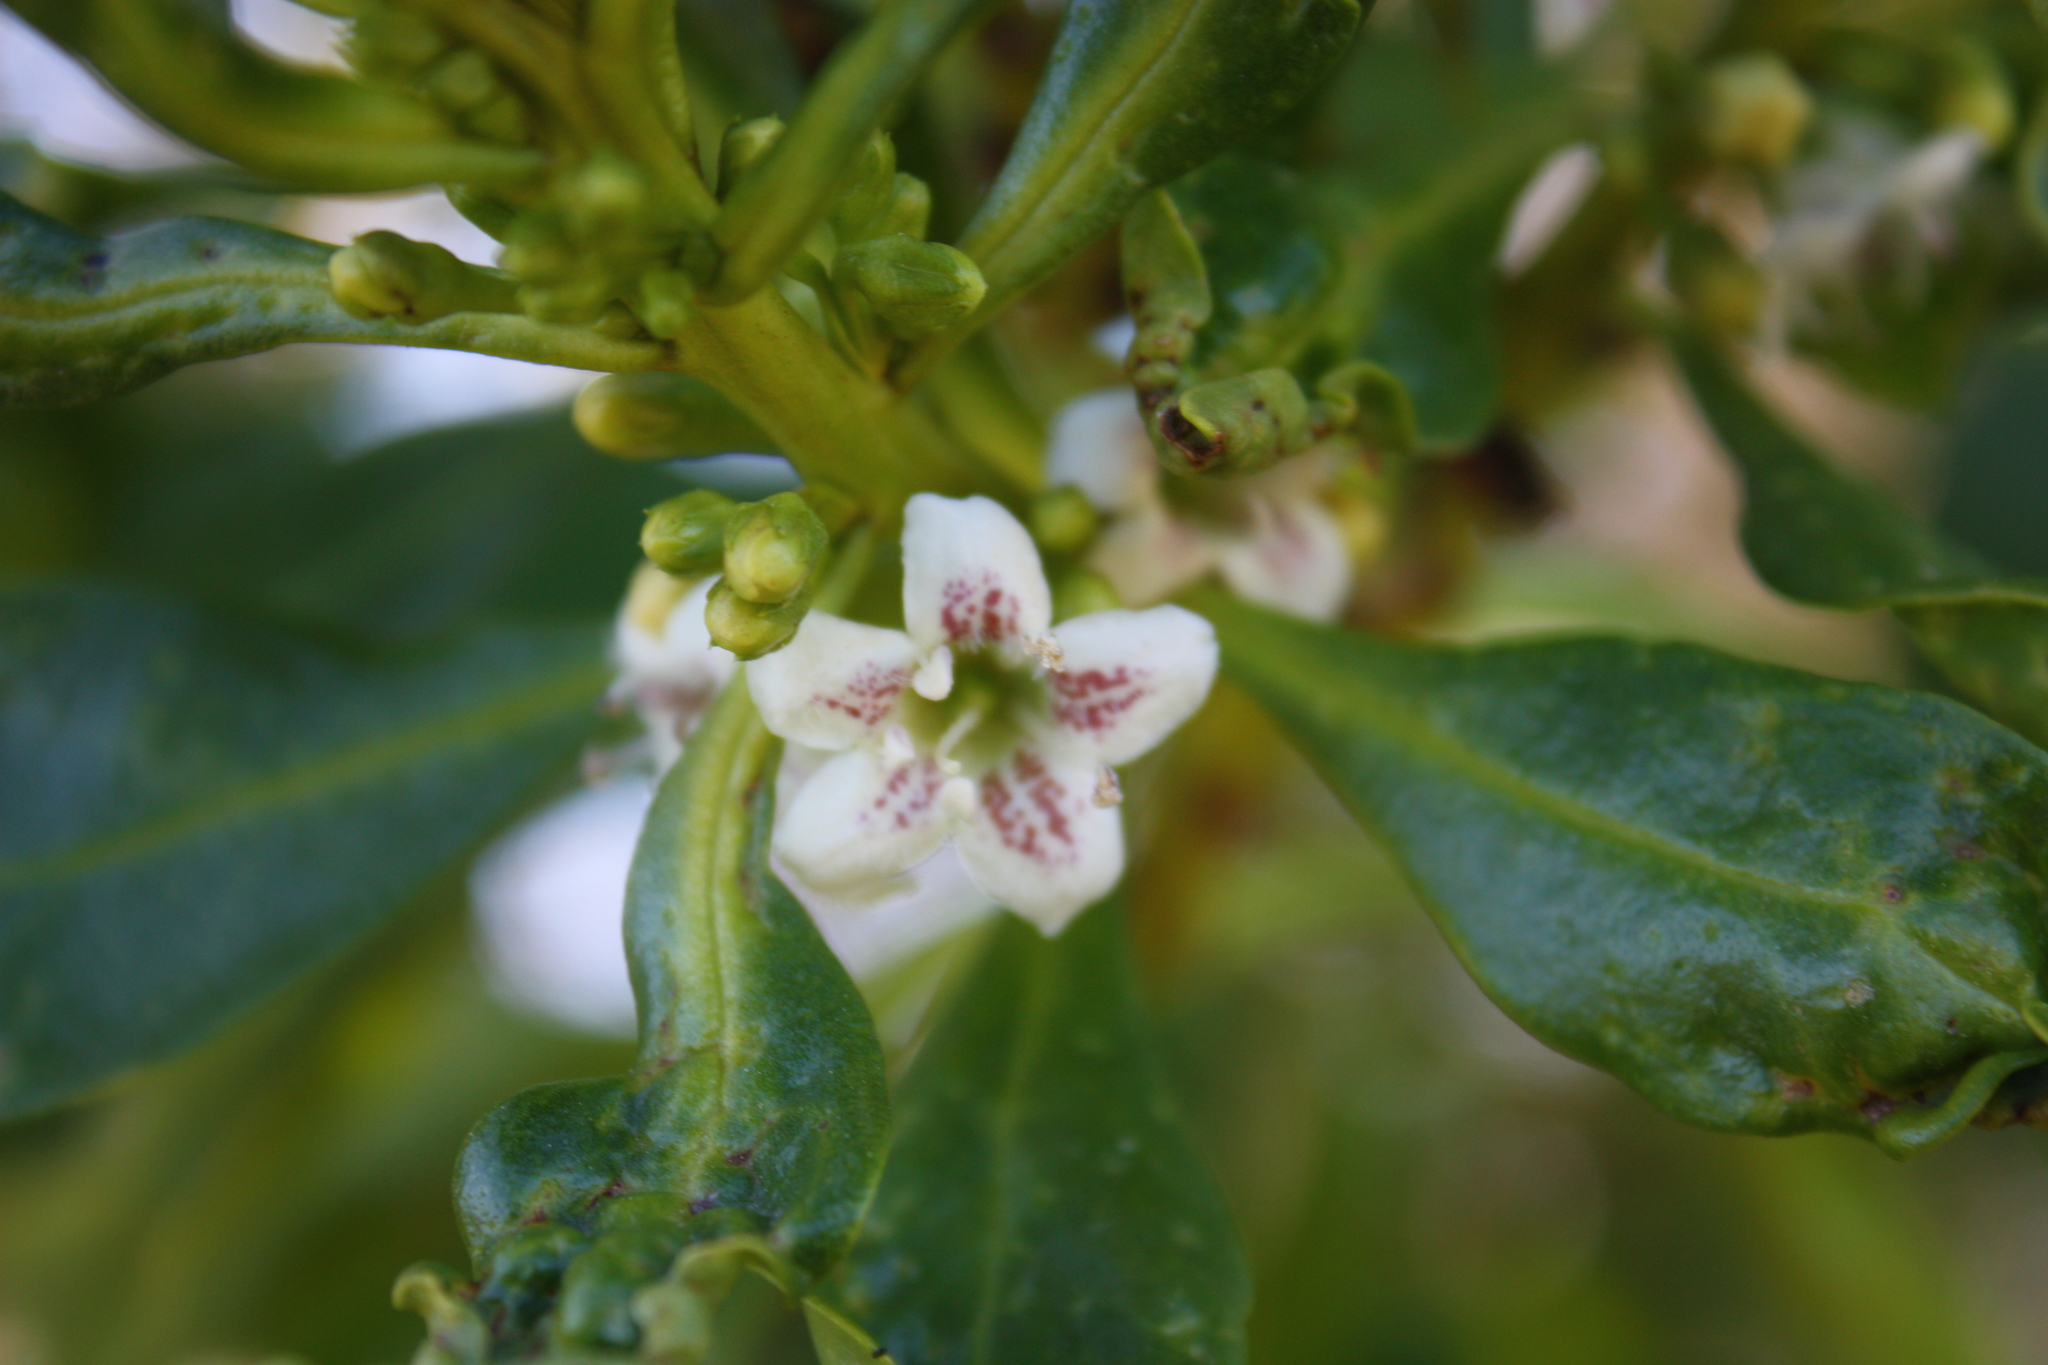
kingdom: Plantae
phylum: Tracheophyta
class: Magnoliopsida
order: Lamiales
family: Scrophulariaceae
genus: Myoporum
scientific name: Myoporum laetum
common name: Ngaio tree
